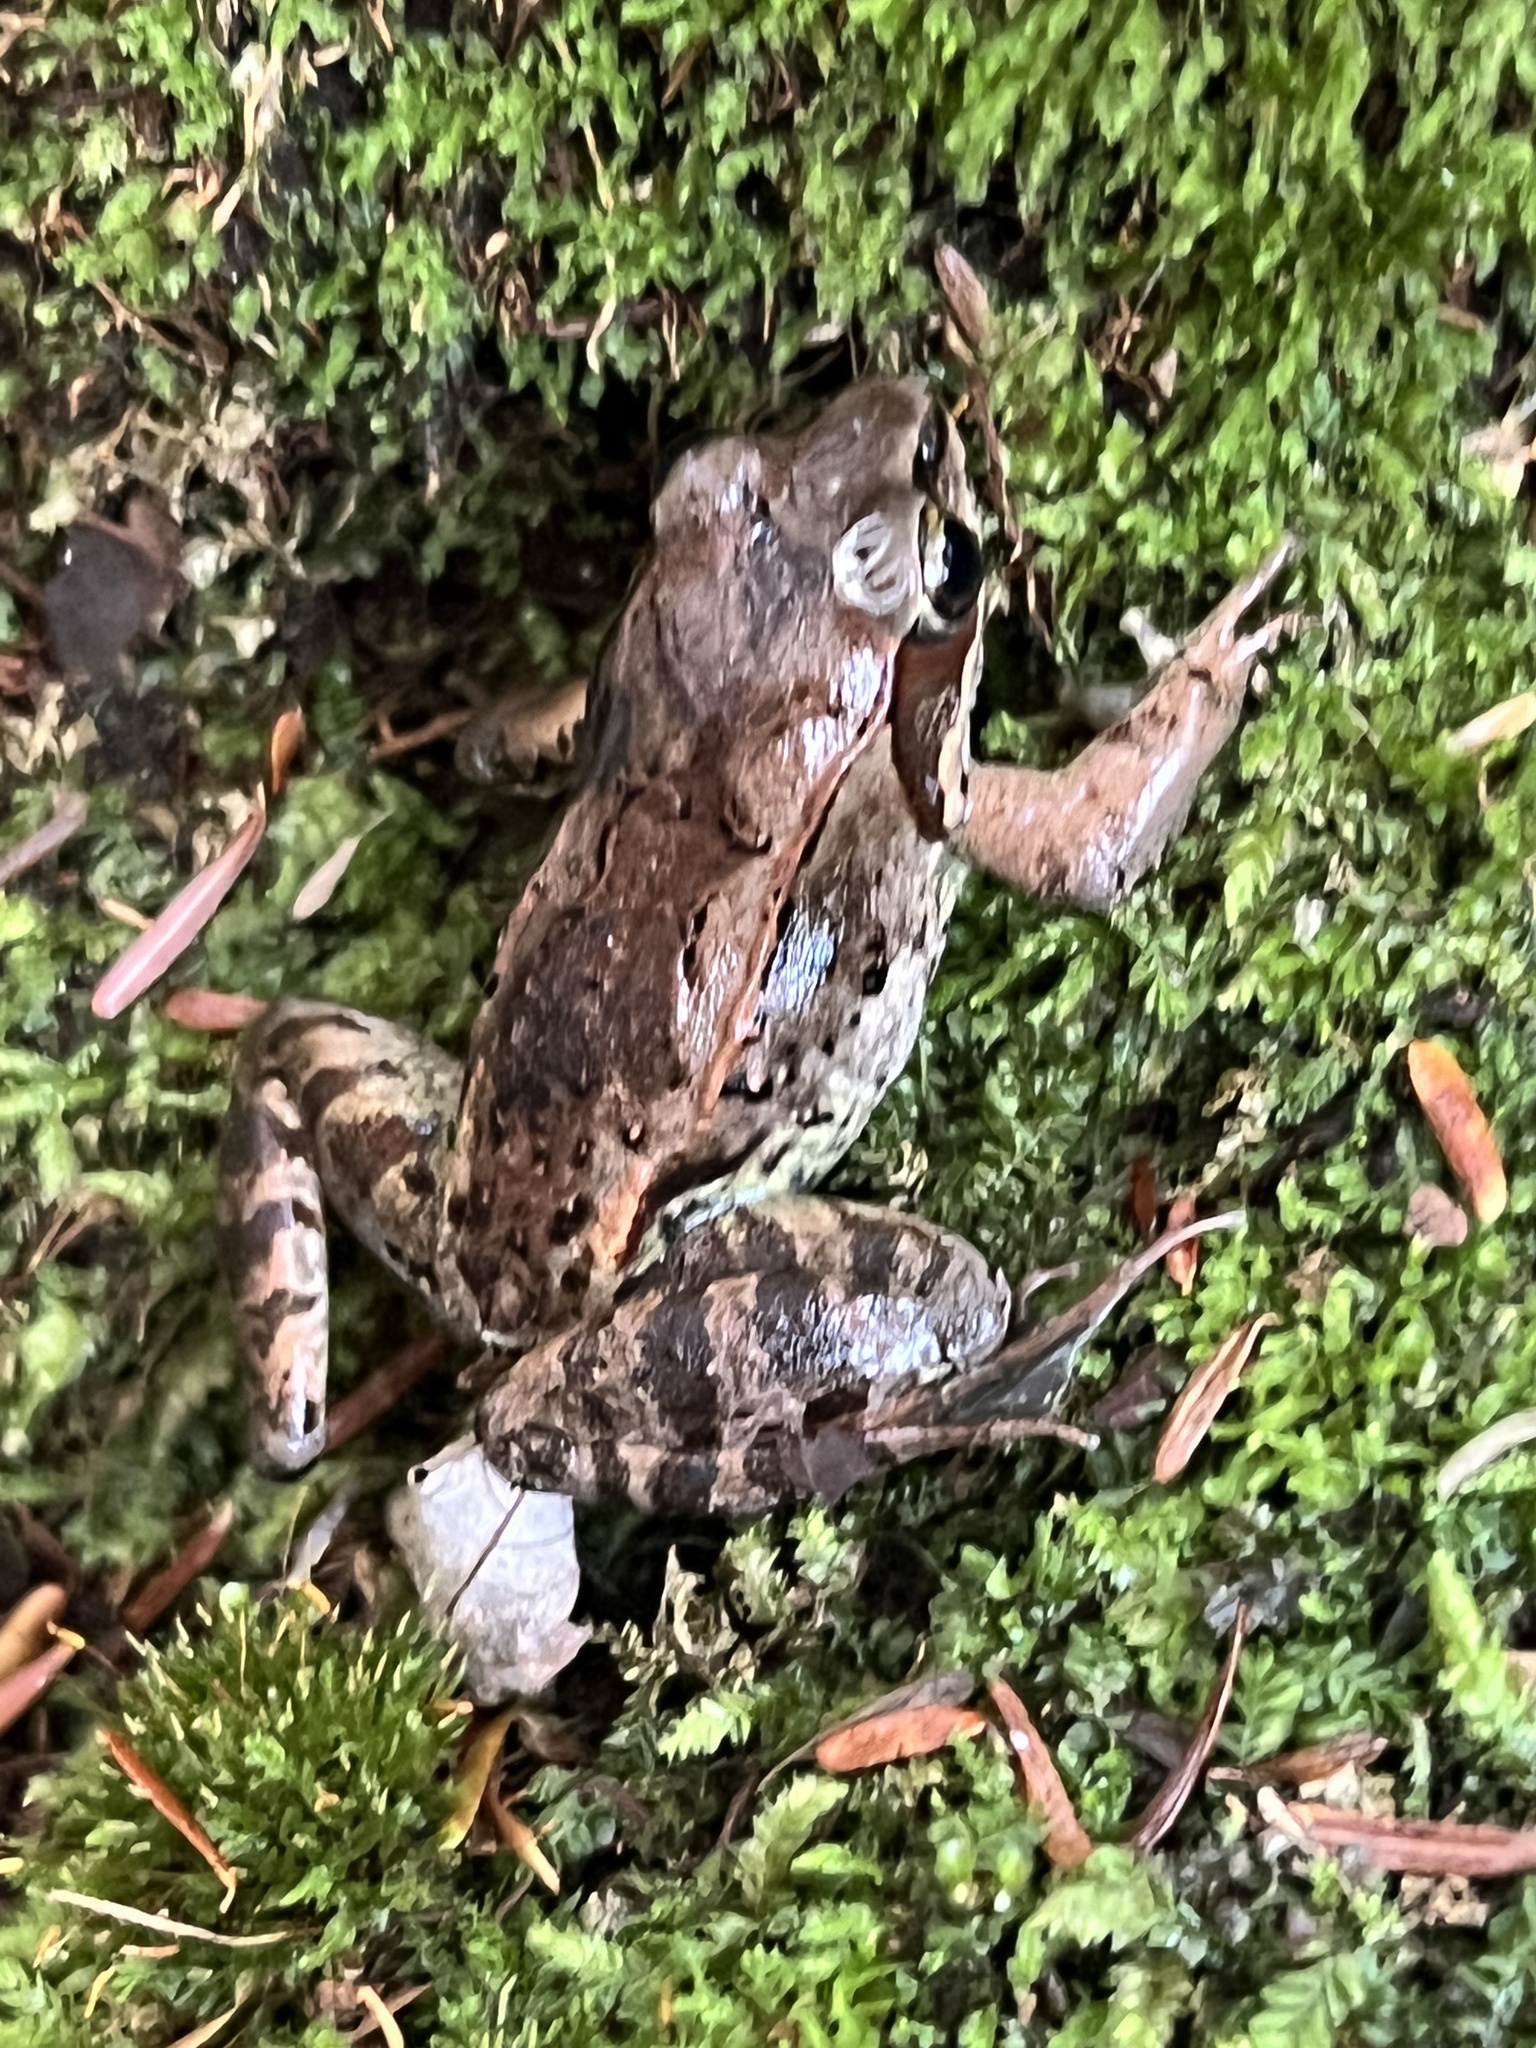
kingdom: Animalia
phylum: Chordata
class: Amphibia
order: Anura
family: Ranidae
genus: Lithobates
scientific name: Lithobates sylvaticus
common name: Wood frog
